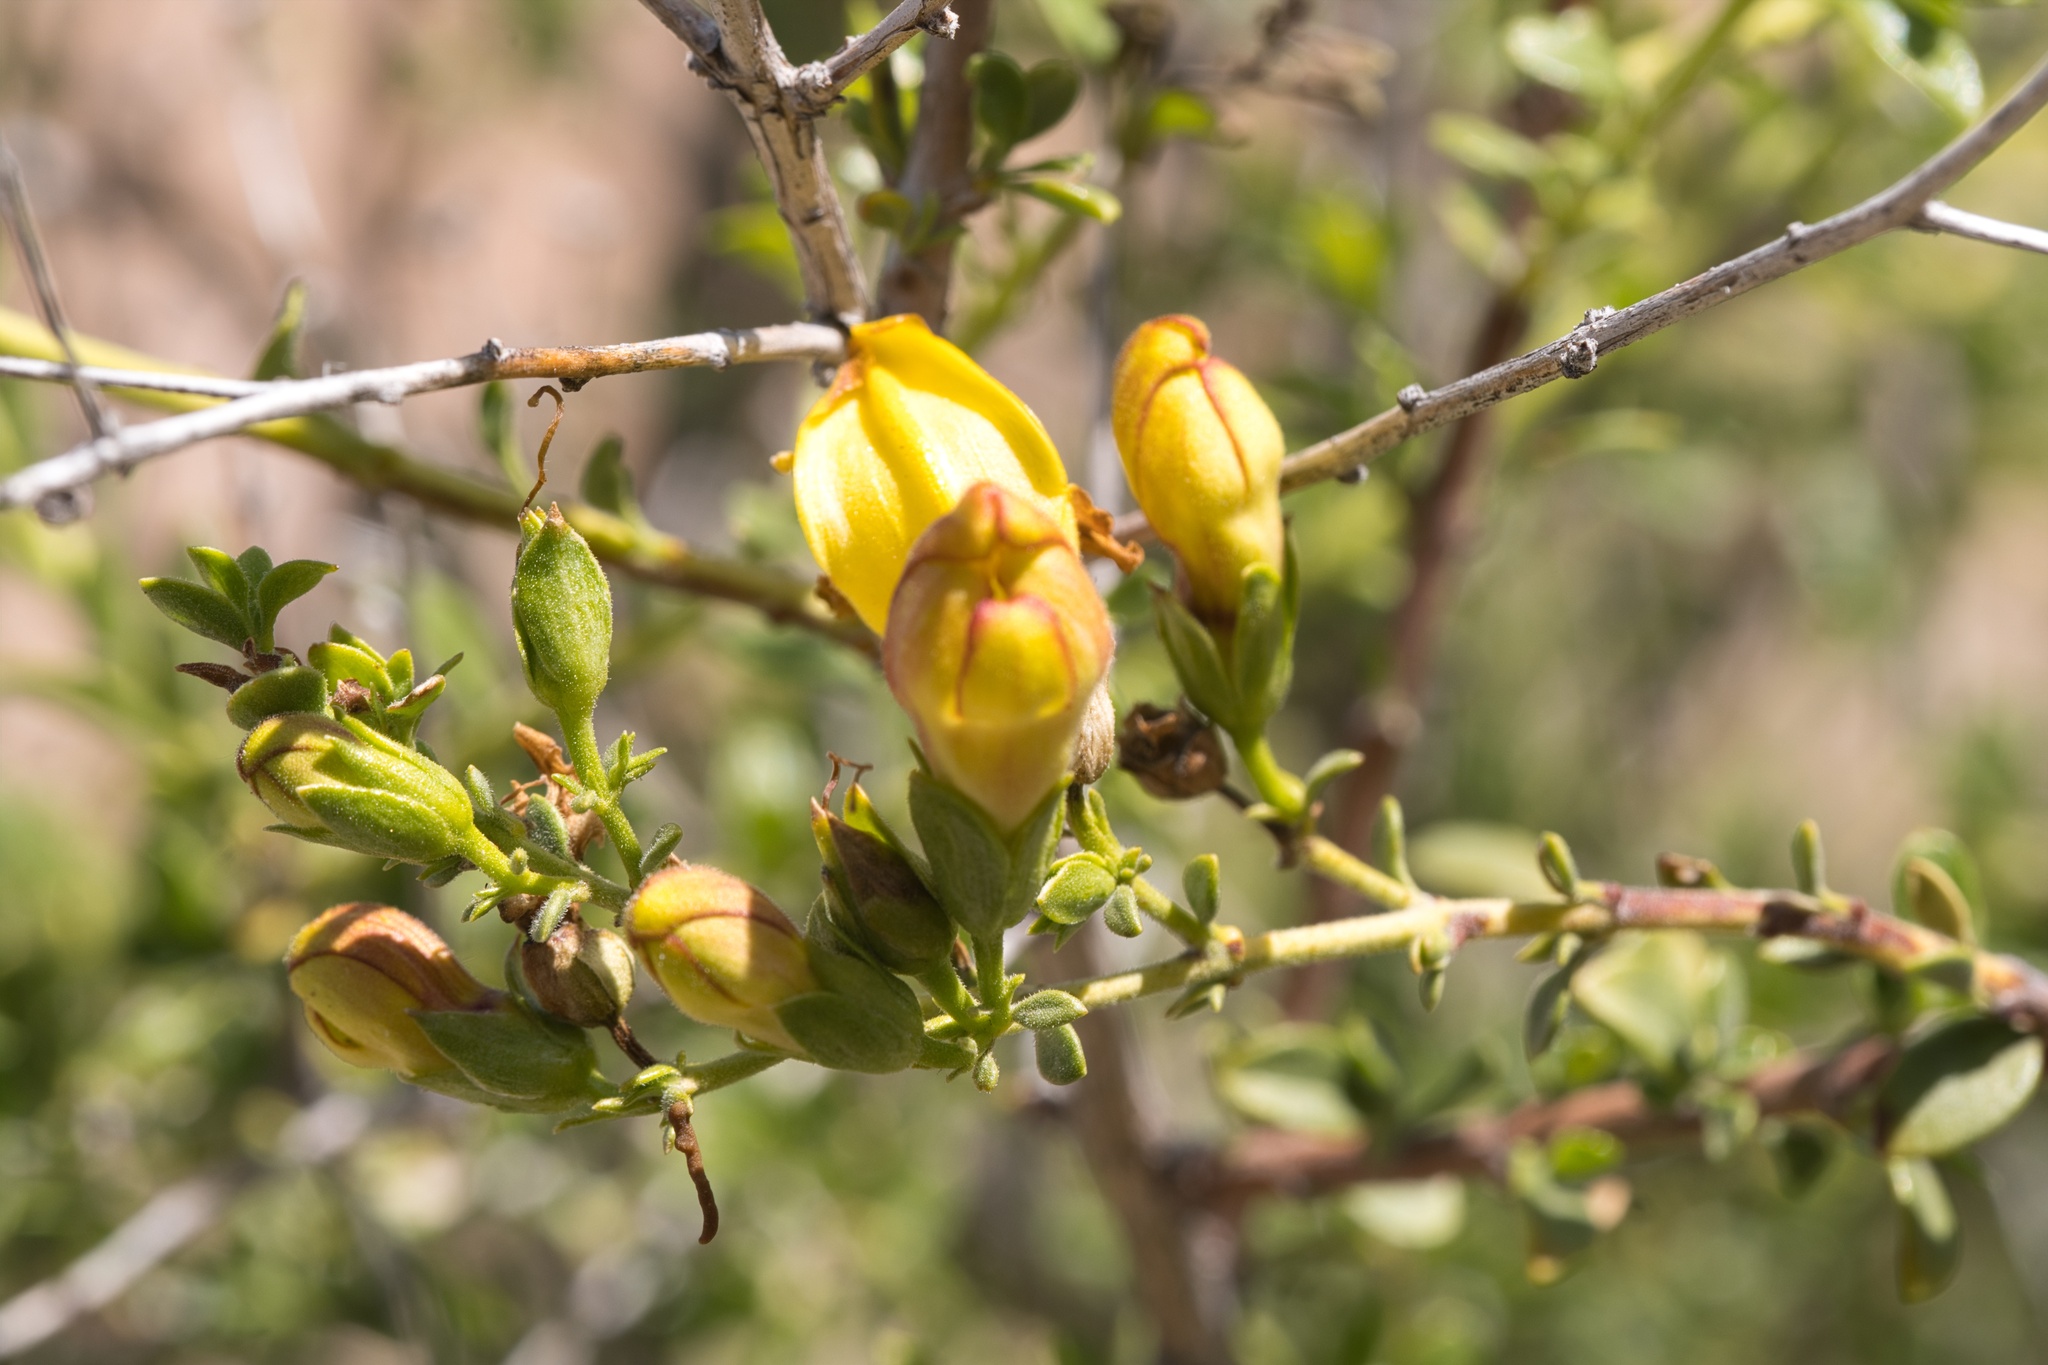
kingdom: Plantae
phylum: Tracheophyta
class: Magnoliopsida
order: Lamiales
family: Plantaginaceae
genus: Keckiella
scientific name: Keckiella antirrhinoides
